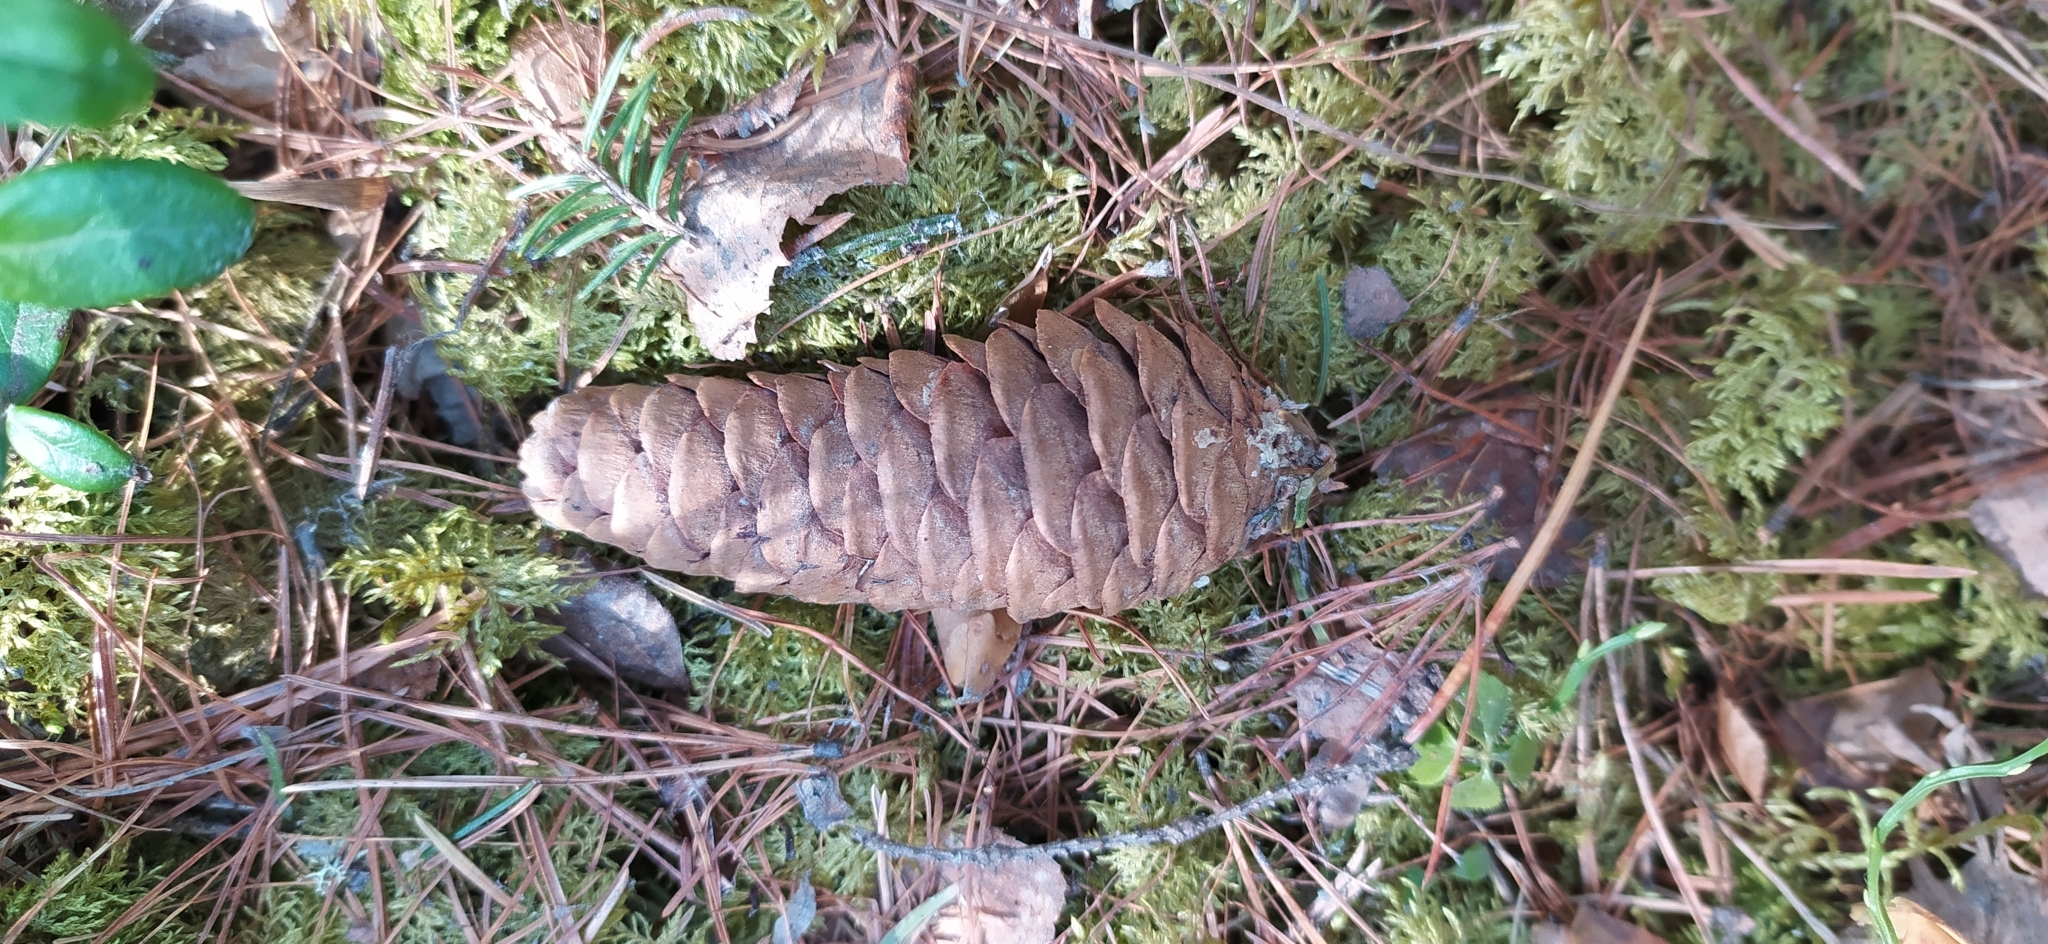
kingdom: Plantae
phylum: Tracheophyta
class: Pinopsida
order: Pinales
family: Pinaceae
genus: Picea
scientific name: Picea obovata
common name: Siberian spruce
